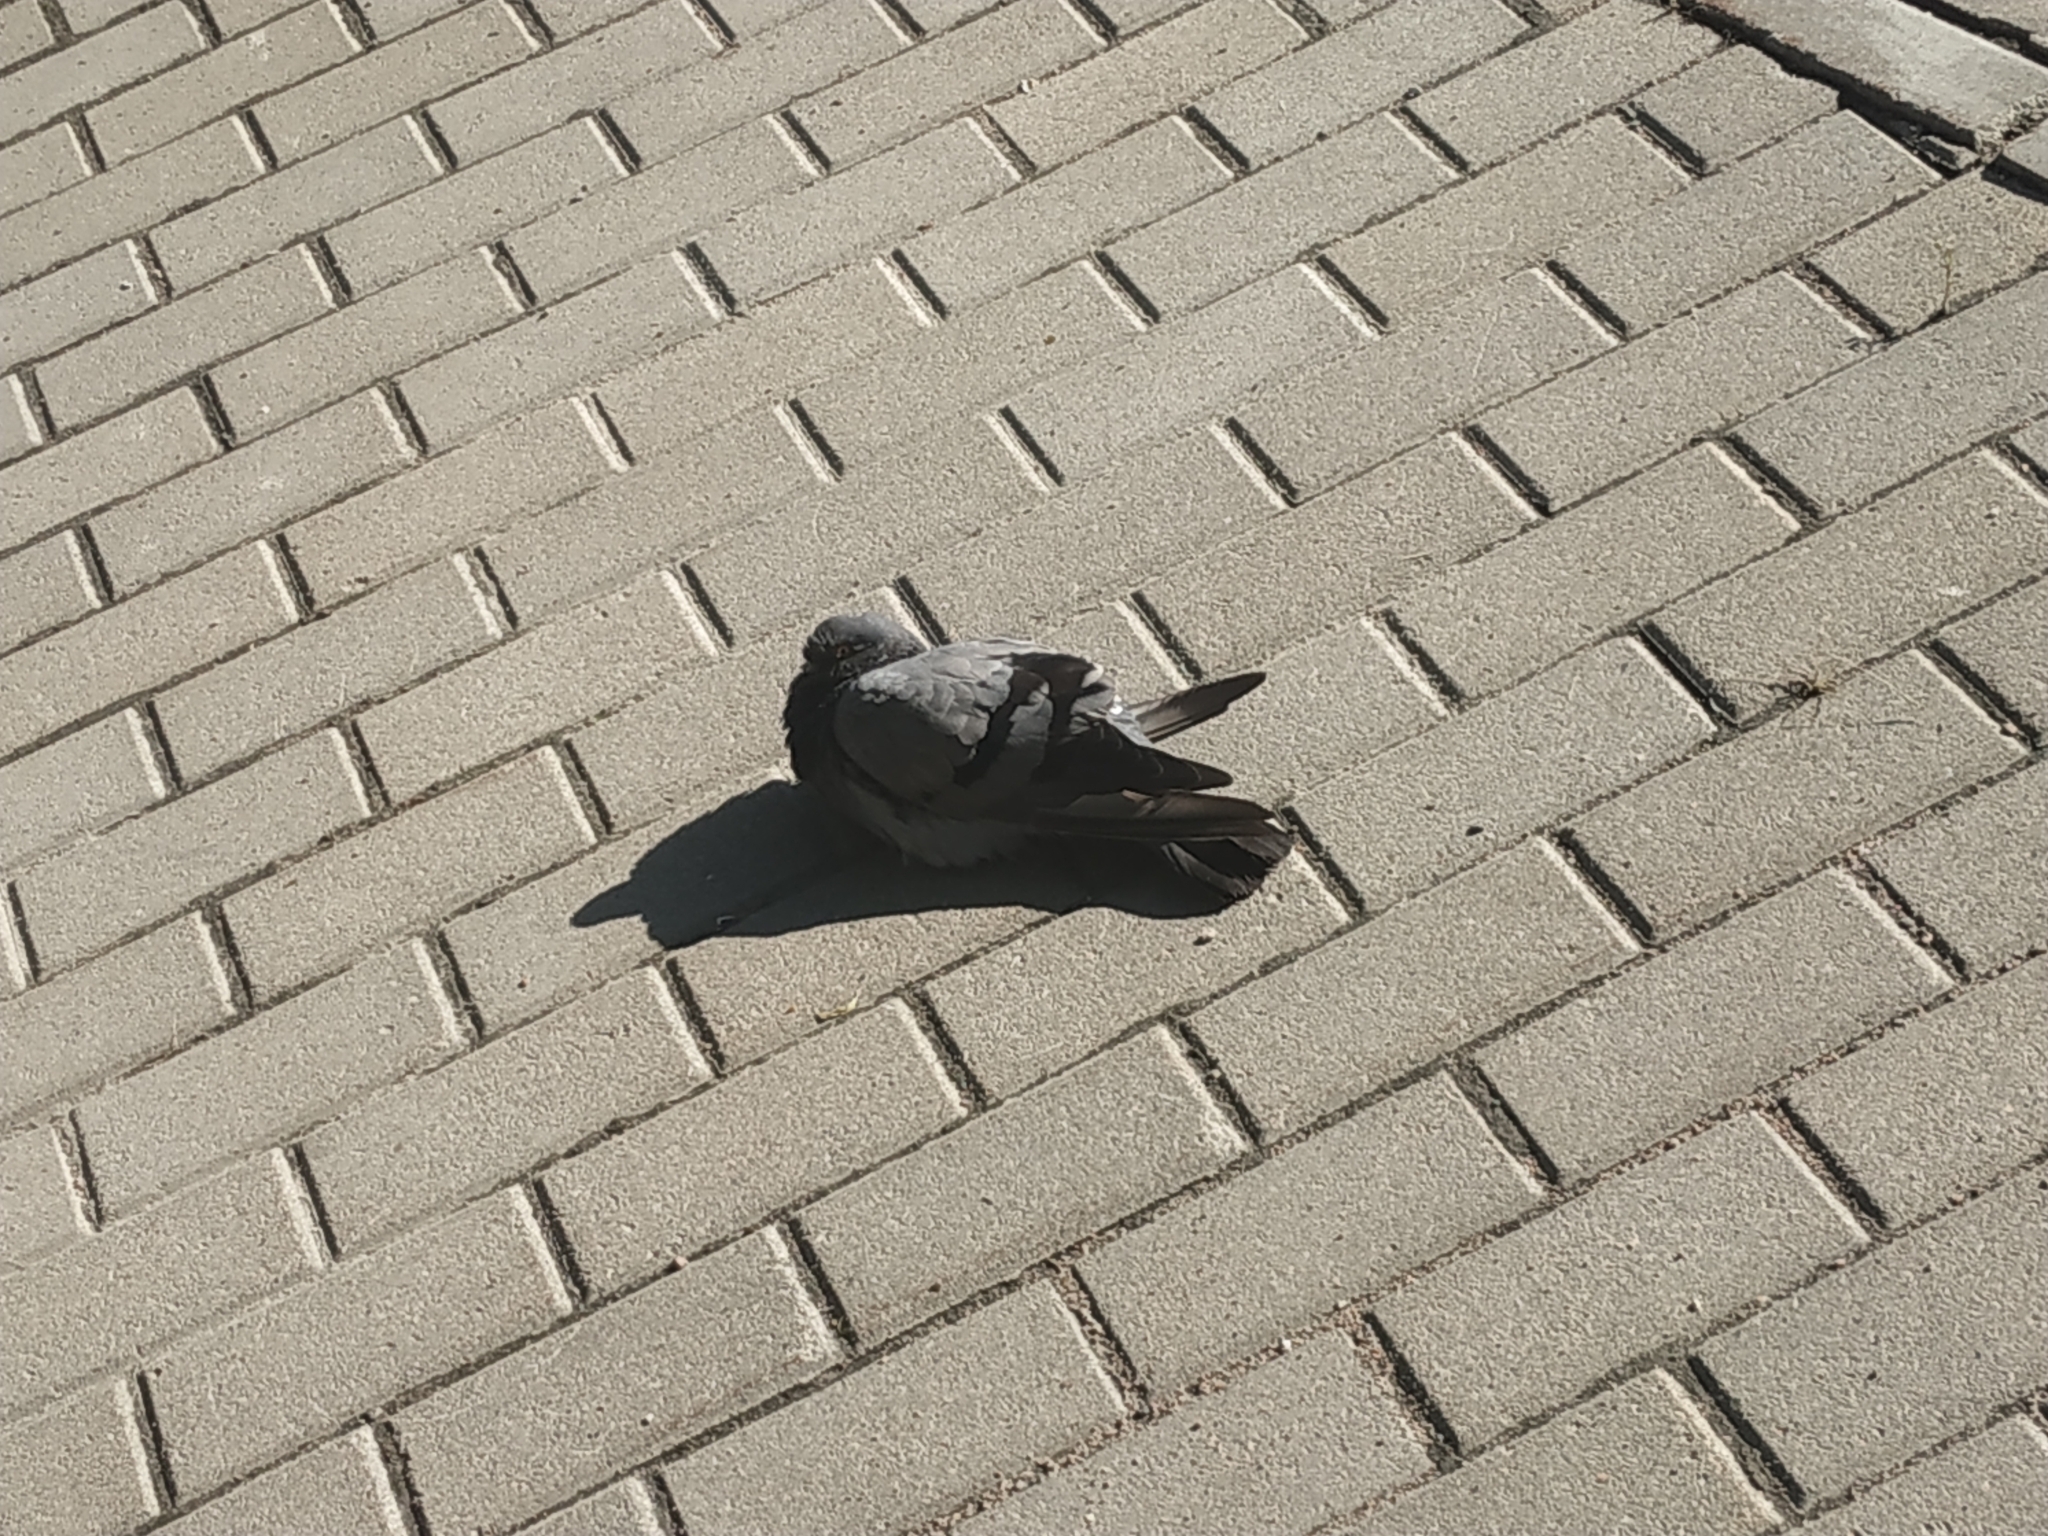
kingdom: Animalia
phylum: Chordata
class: Aves
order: Columbiformes
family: Columbidae
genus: Columba
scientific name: Columba livia
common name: Rock pigeon
